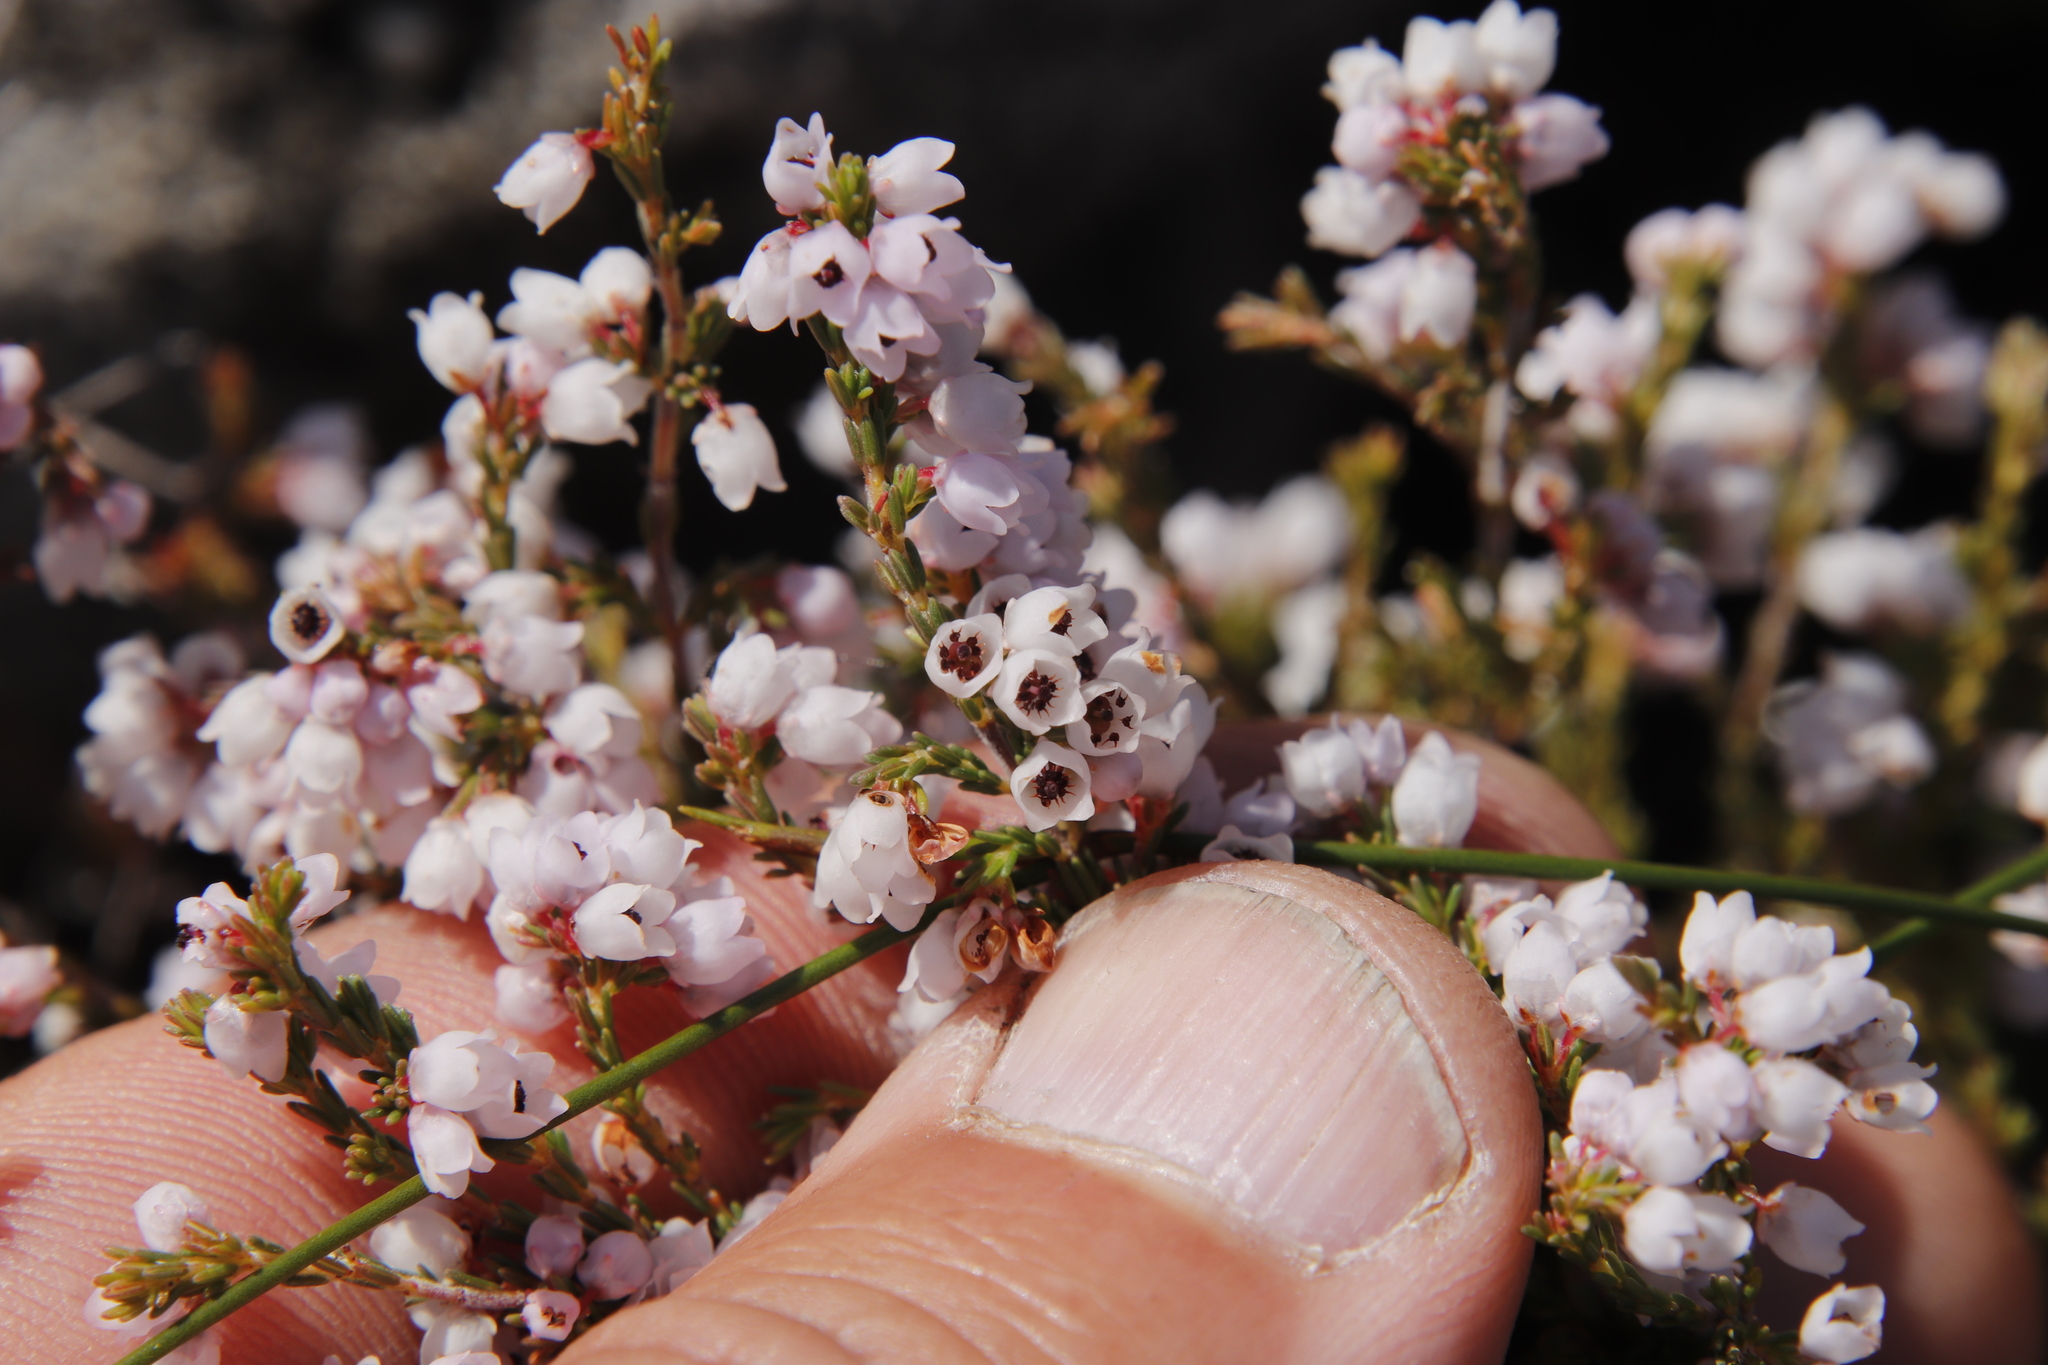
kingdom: Plantae
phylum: Tracheophyta
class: Magnoliopsida
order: Ericales
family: Ericaceae
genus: Erica
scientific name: Erica quadrangularis
